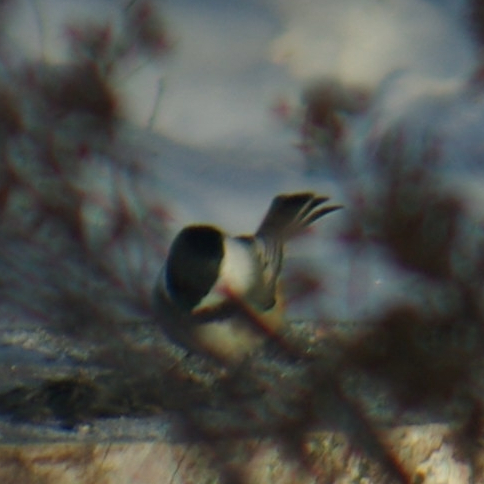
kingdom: Animalia
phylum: Chordata
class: Aves
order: Passeriformes
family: Paridae
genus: Poecile
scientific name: Poecile atricapillus
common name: Black-capped chickadee
